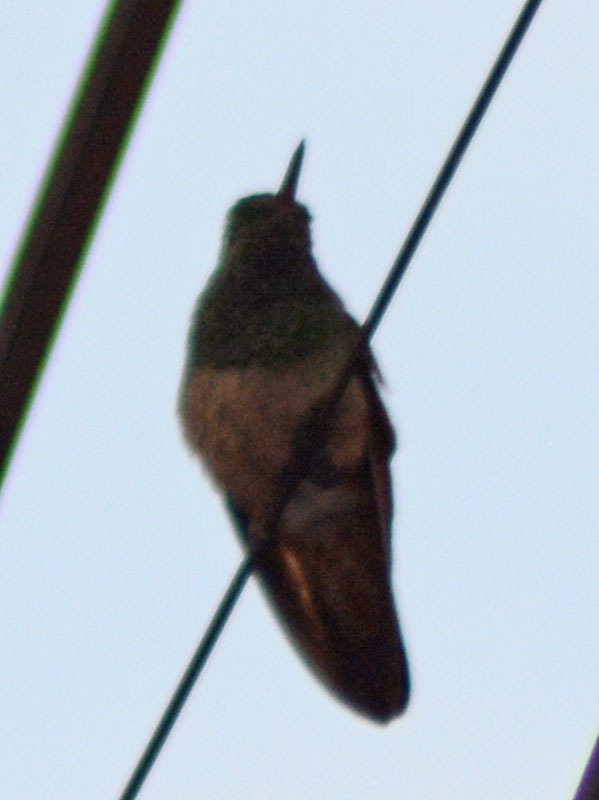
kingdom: Animalia
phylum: Chordata
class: Aves
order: Apodiformes
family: Trochilidae
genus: Saucerottia
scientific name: Saucerottia beryllina
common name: Berylline hummingbird
